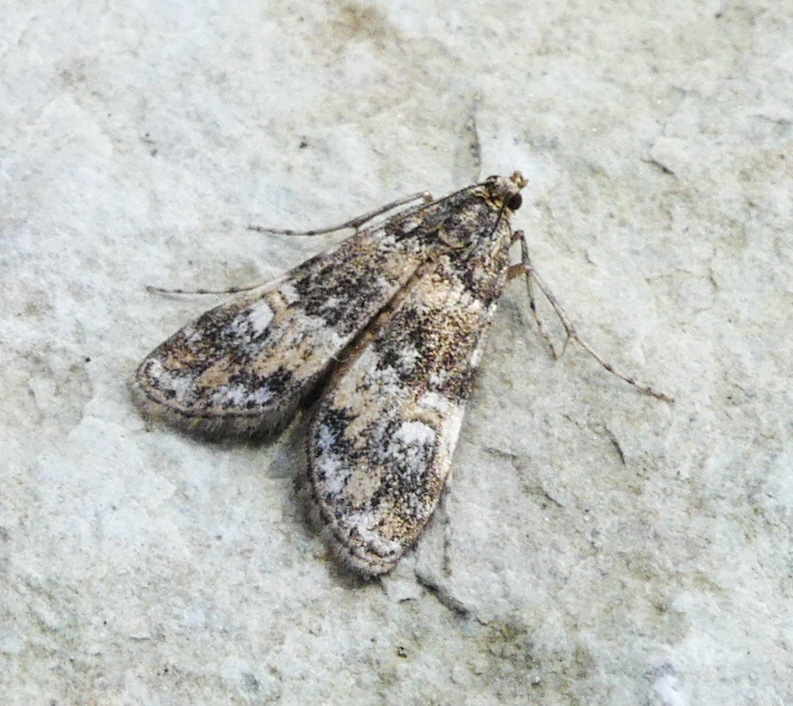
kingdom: Animalia
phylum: Arthropoda
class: Insecta
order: Lepidoptera
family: Crambidae
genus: Elophila
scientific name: Elophila obliteralis
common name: Waterlily leafcutter moth
